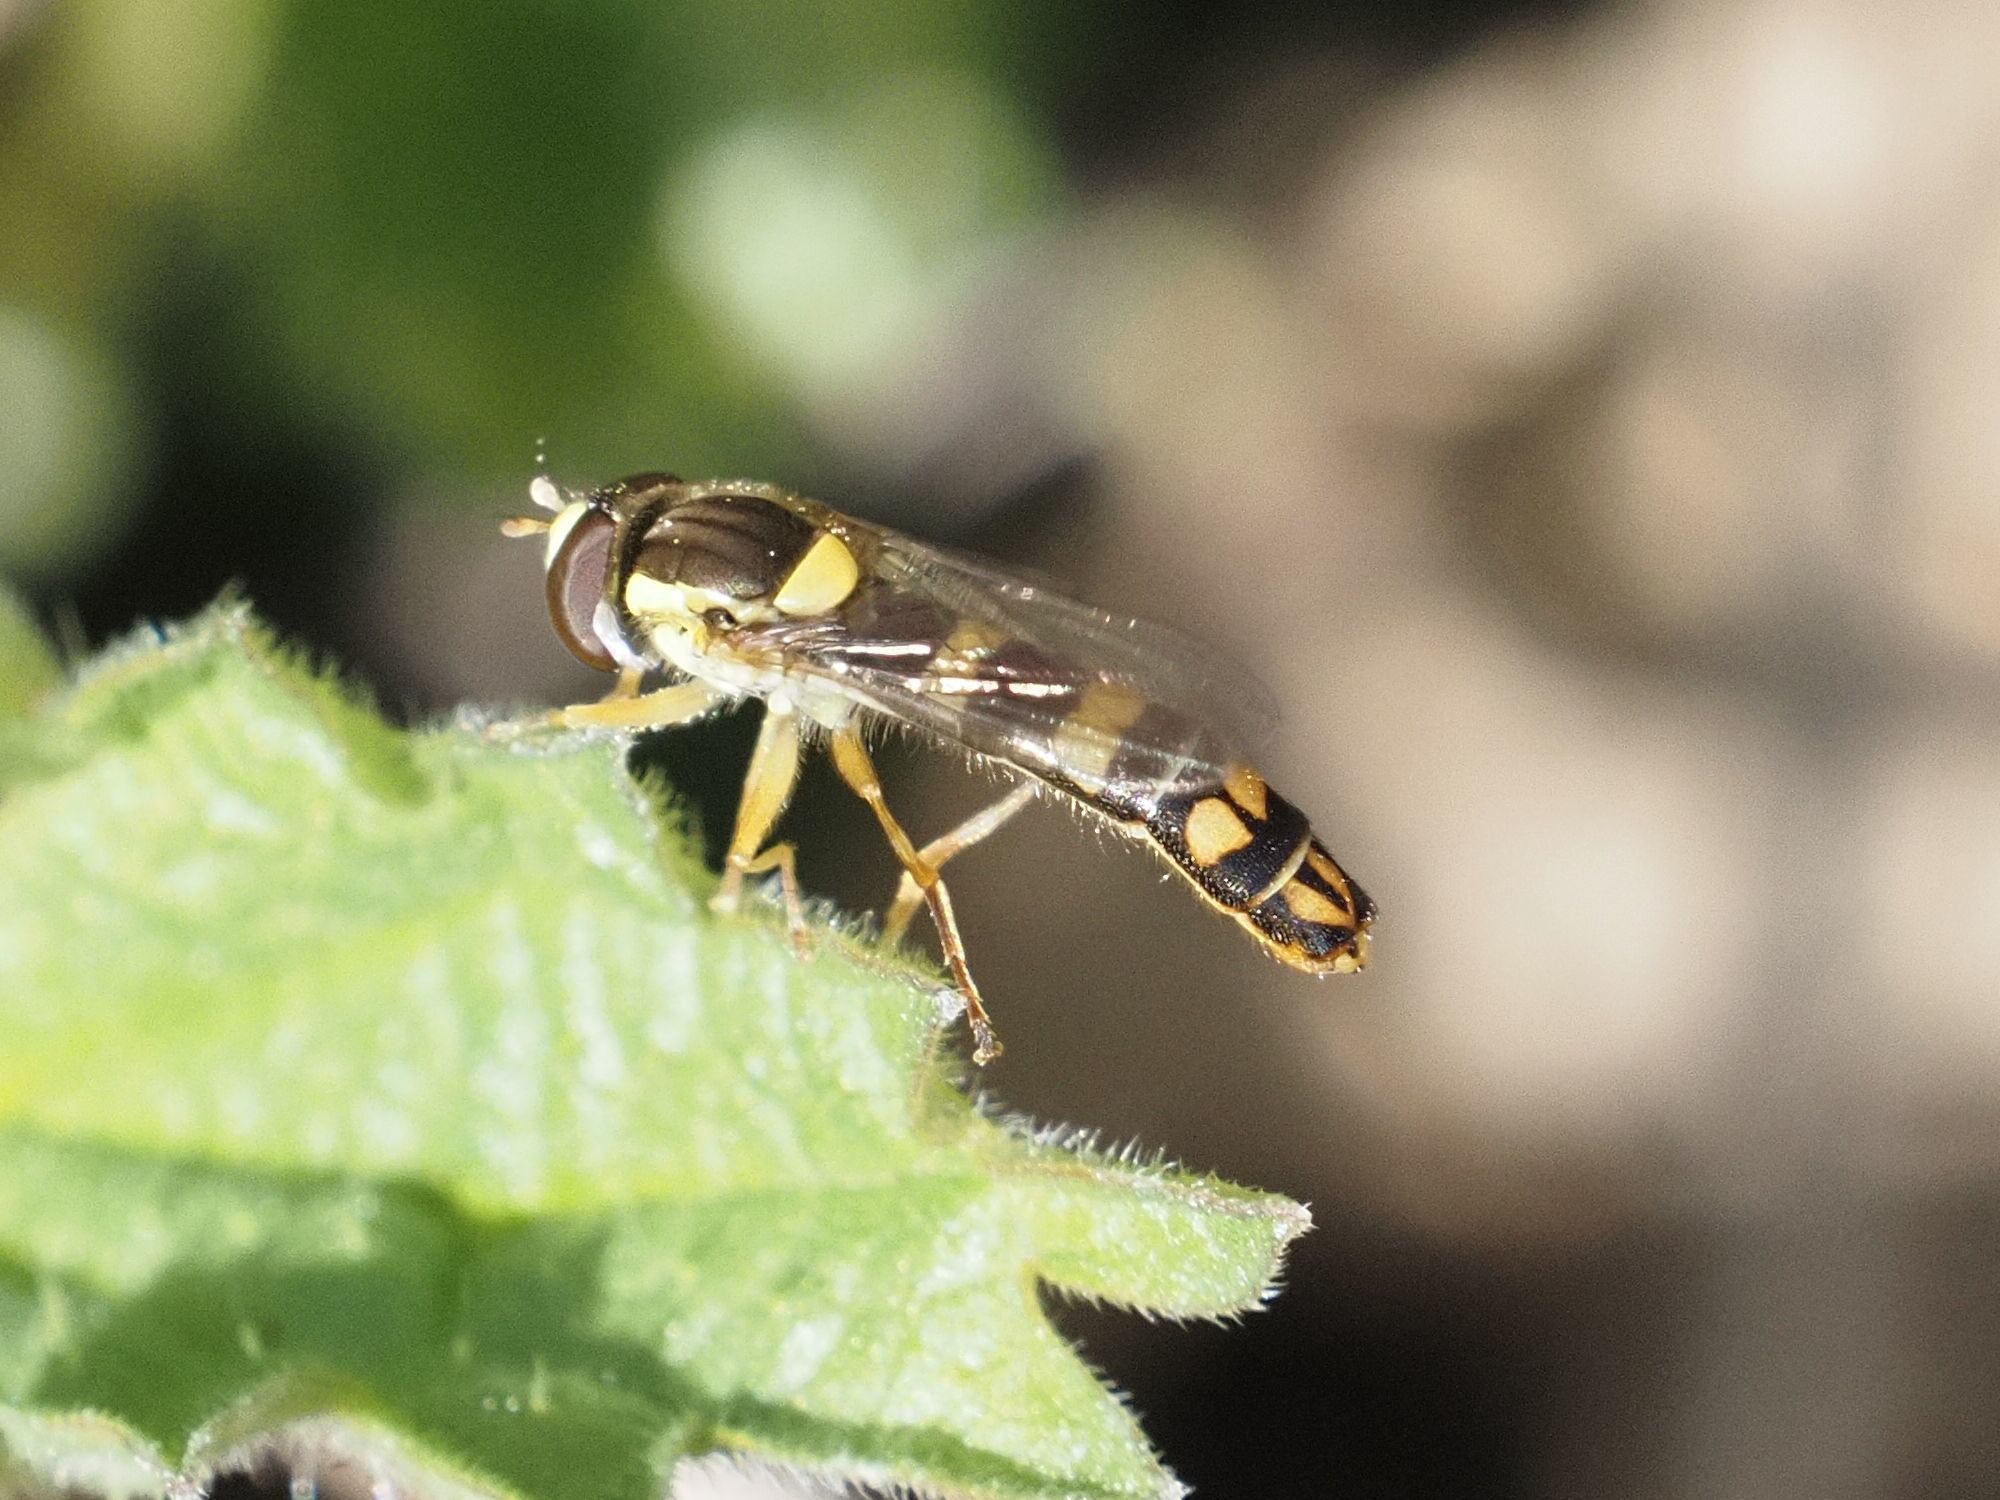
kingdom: Animalia
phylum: Arthropoda
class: Insecta
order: Diptera
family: Syrphidae
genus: Sphaerophoria
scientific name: Sphaerophoria scripta
